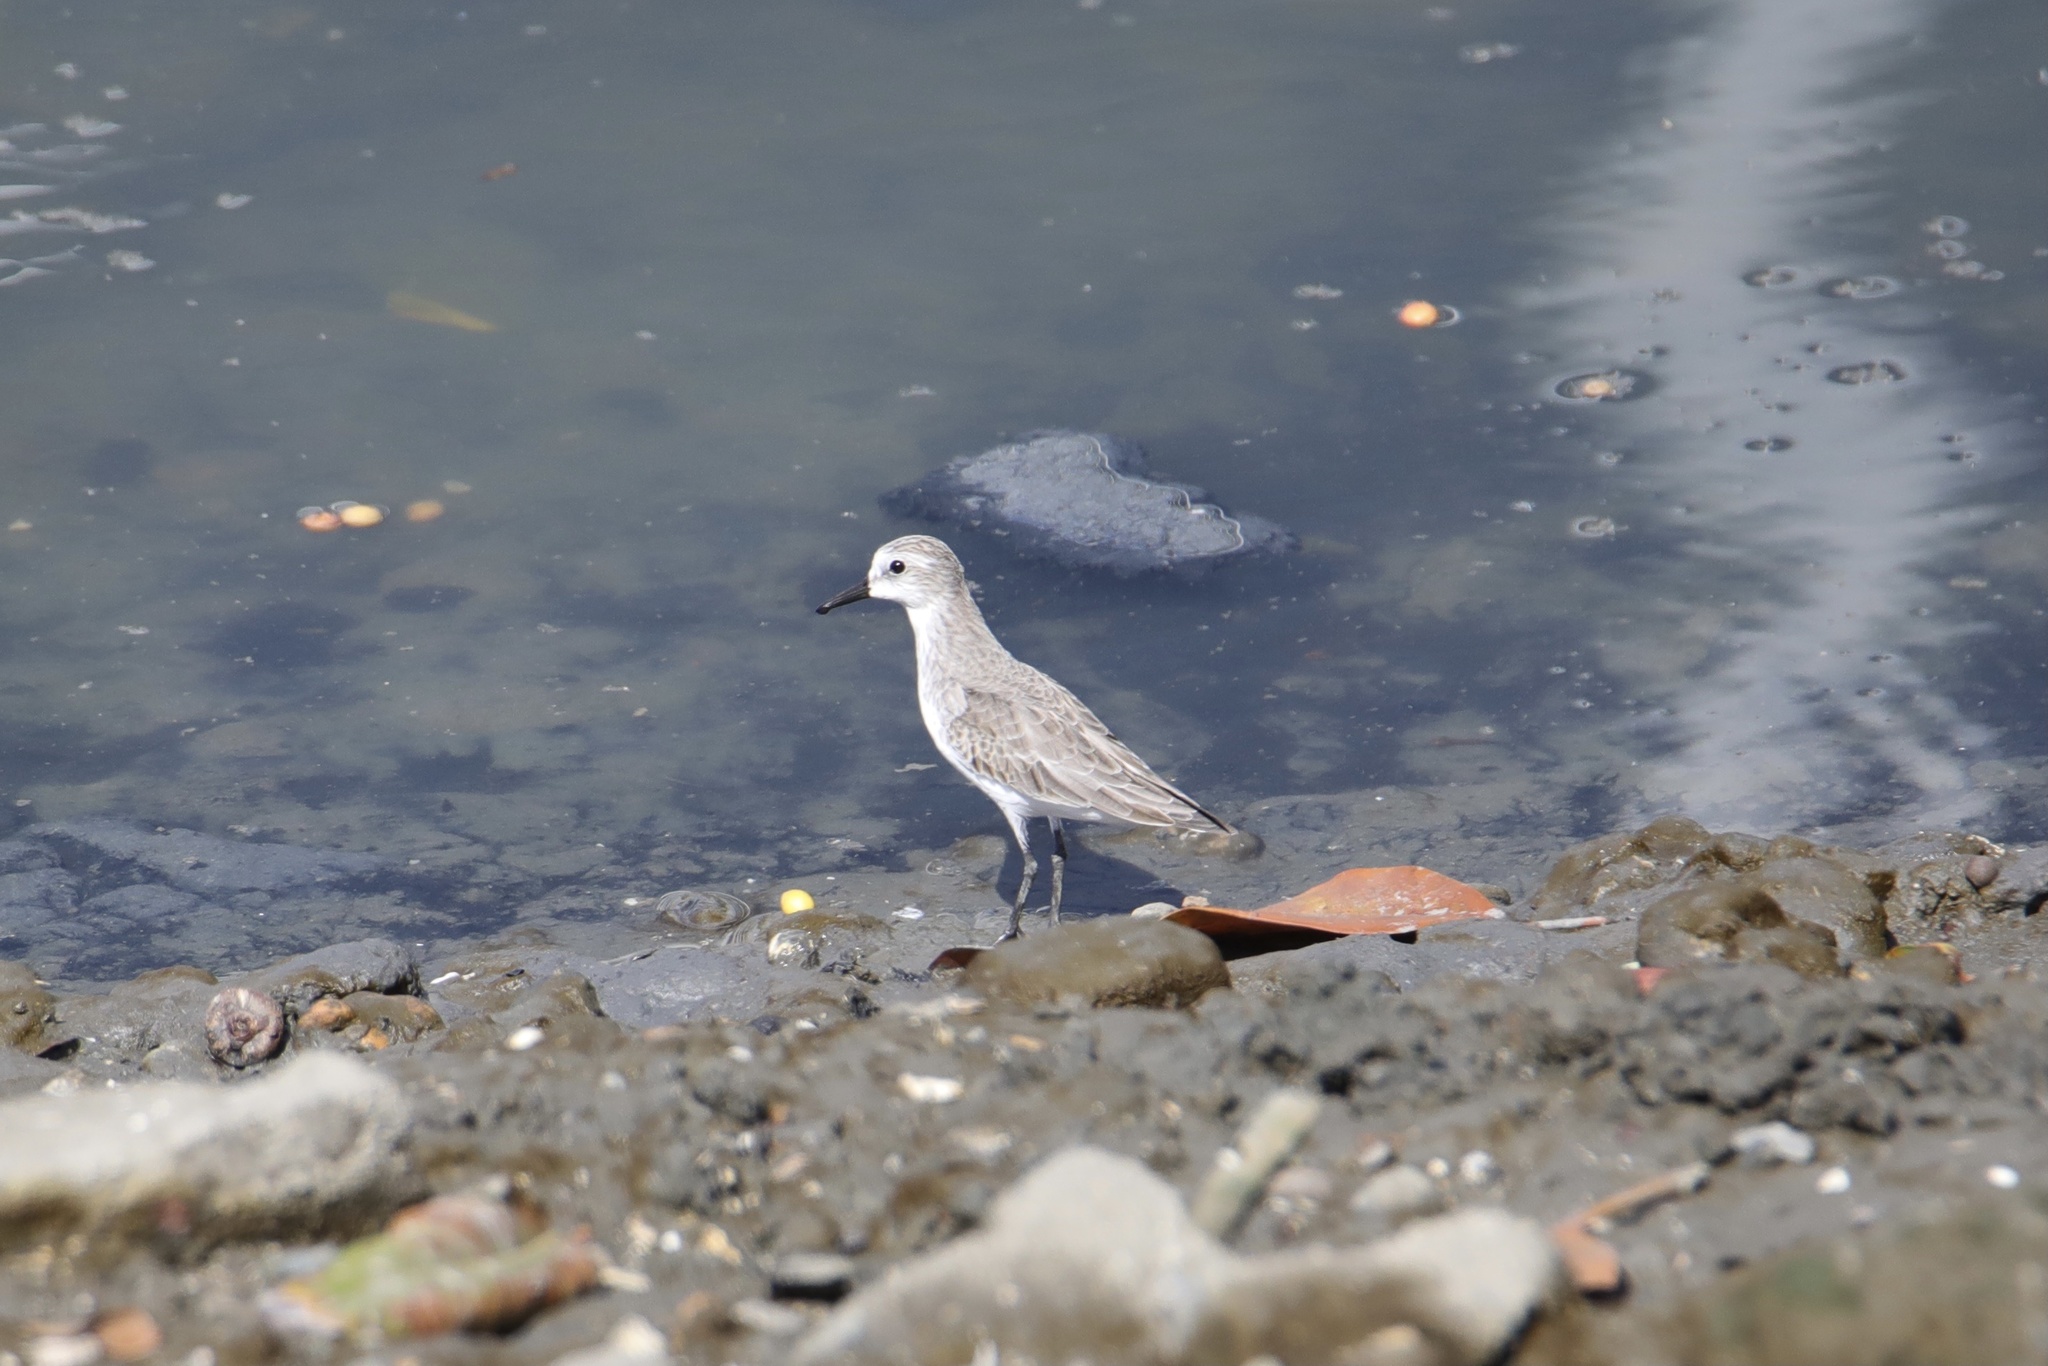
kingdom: Animalia
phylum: Chordata
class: Aves
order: Charadriiformes
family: Scolopacidae
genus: Calidris
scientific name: Calidris pusilla
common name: Semipalmated sandpiper
